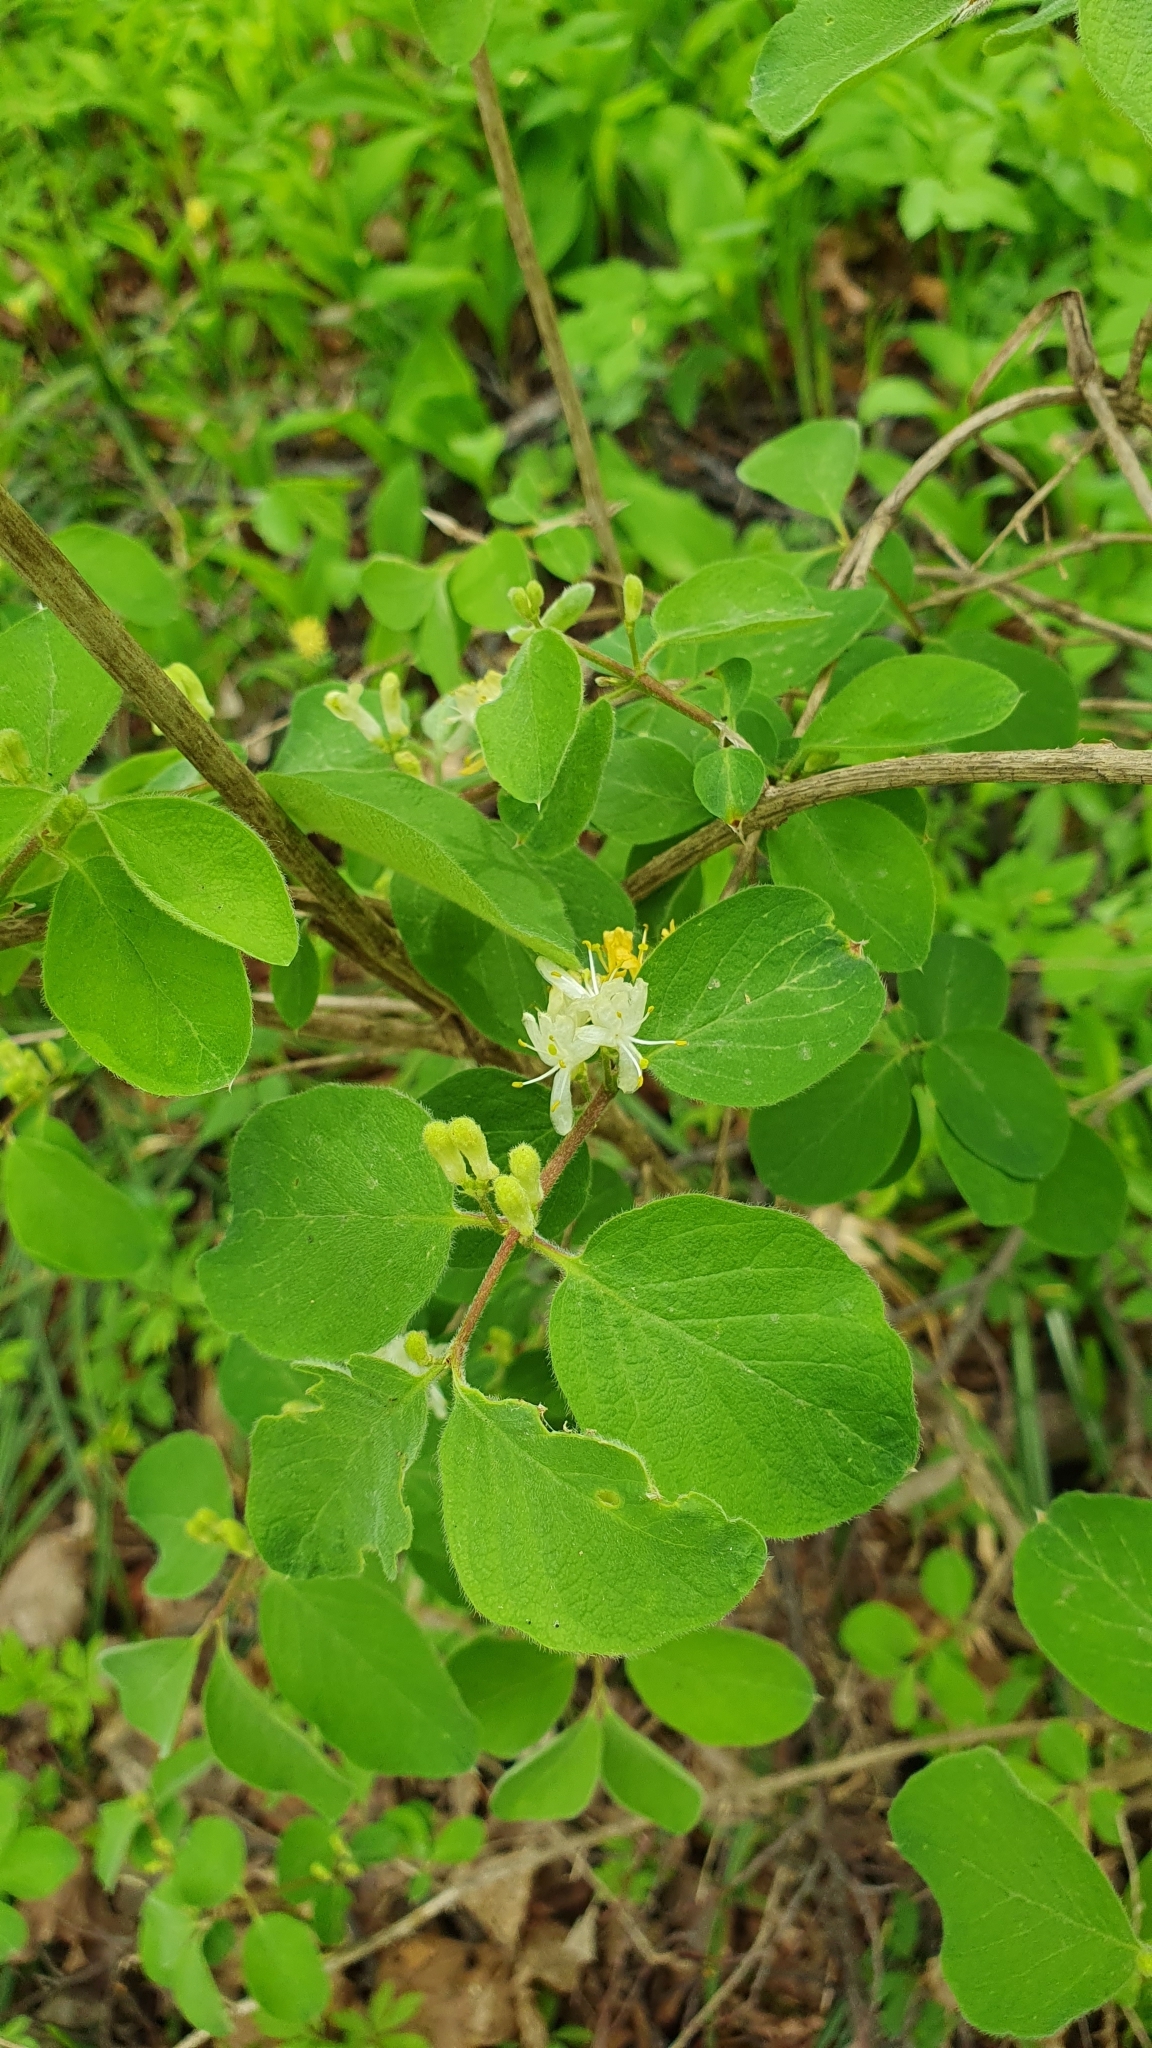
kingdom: Plantae
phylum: Tracheophyta
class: Magnoliopsida
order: Dipsacales
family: Caprifoliaceae
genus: Lonicera
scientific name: Lonicera xylosteum
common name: Fly honeysuckle
